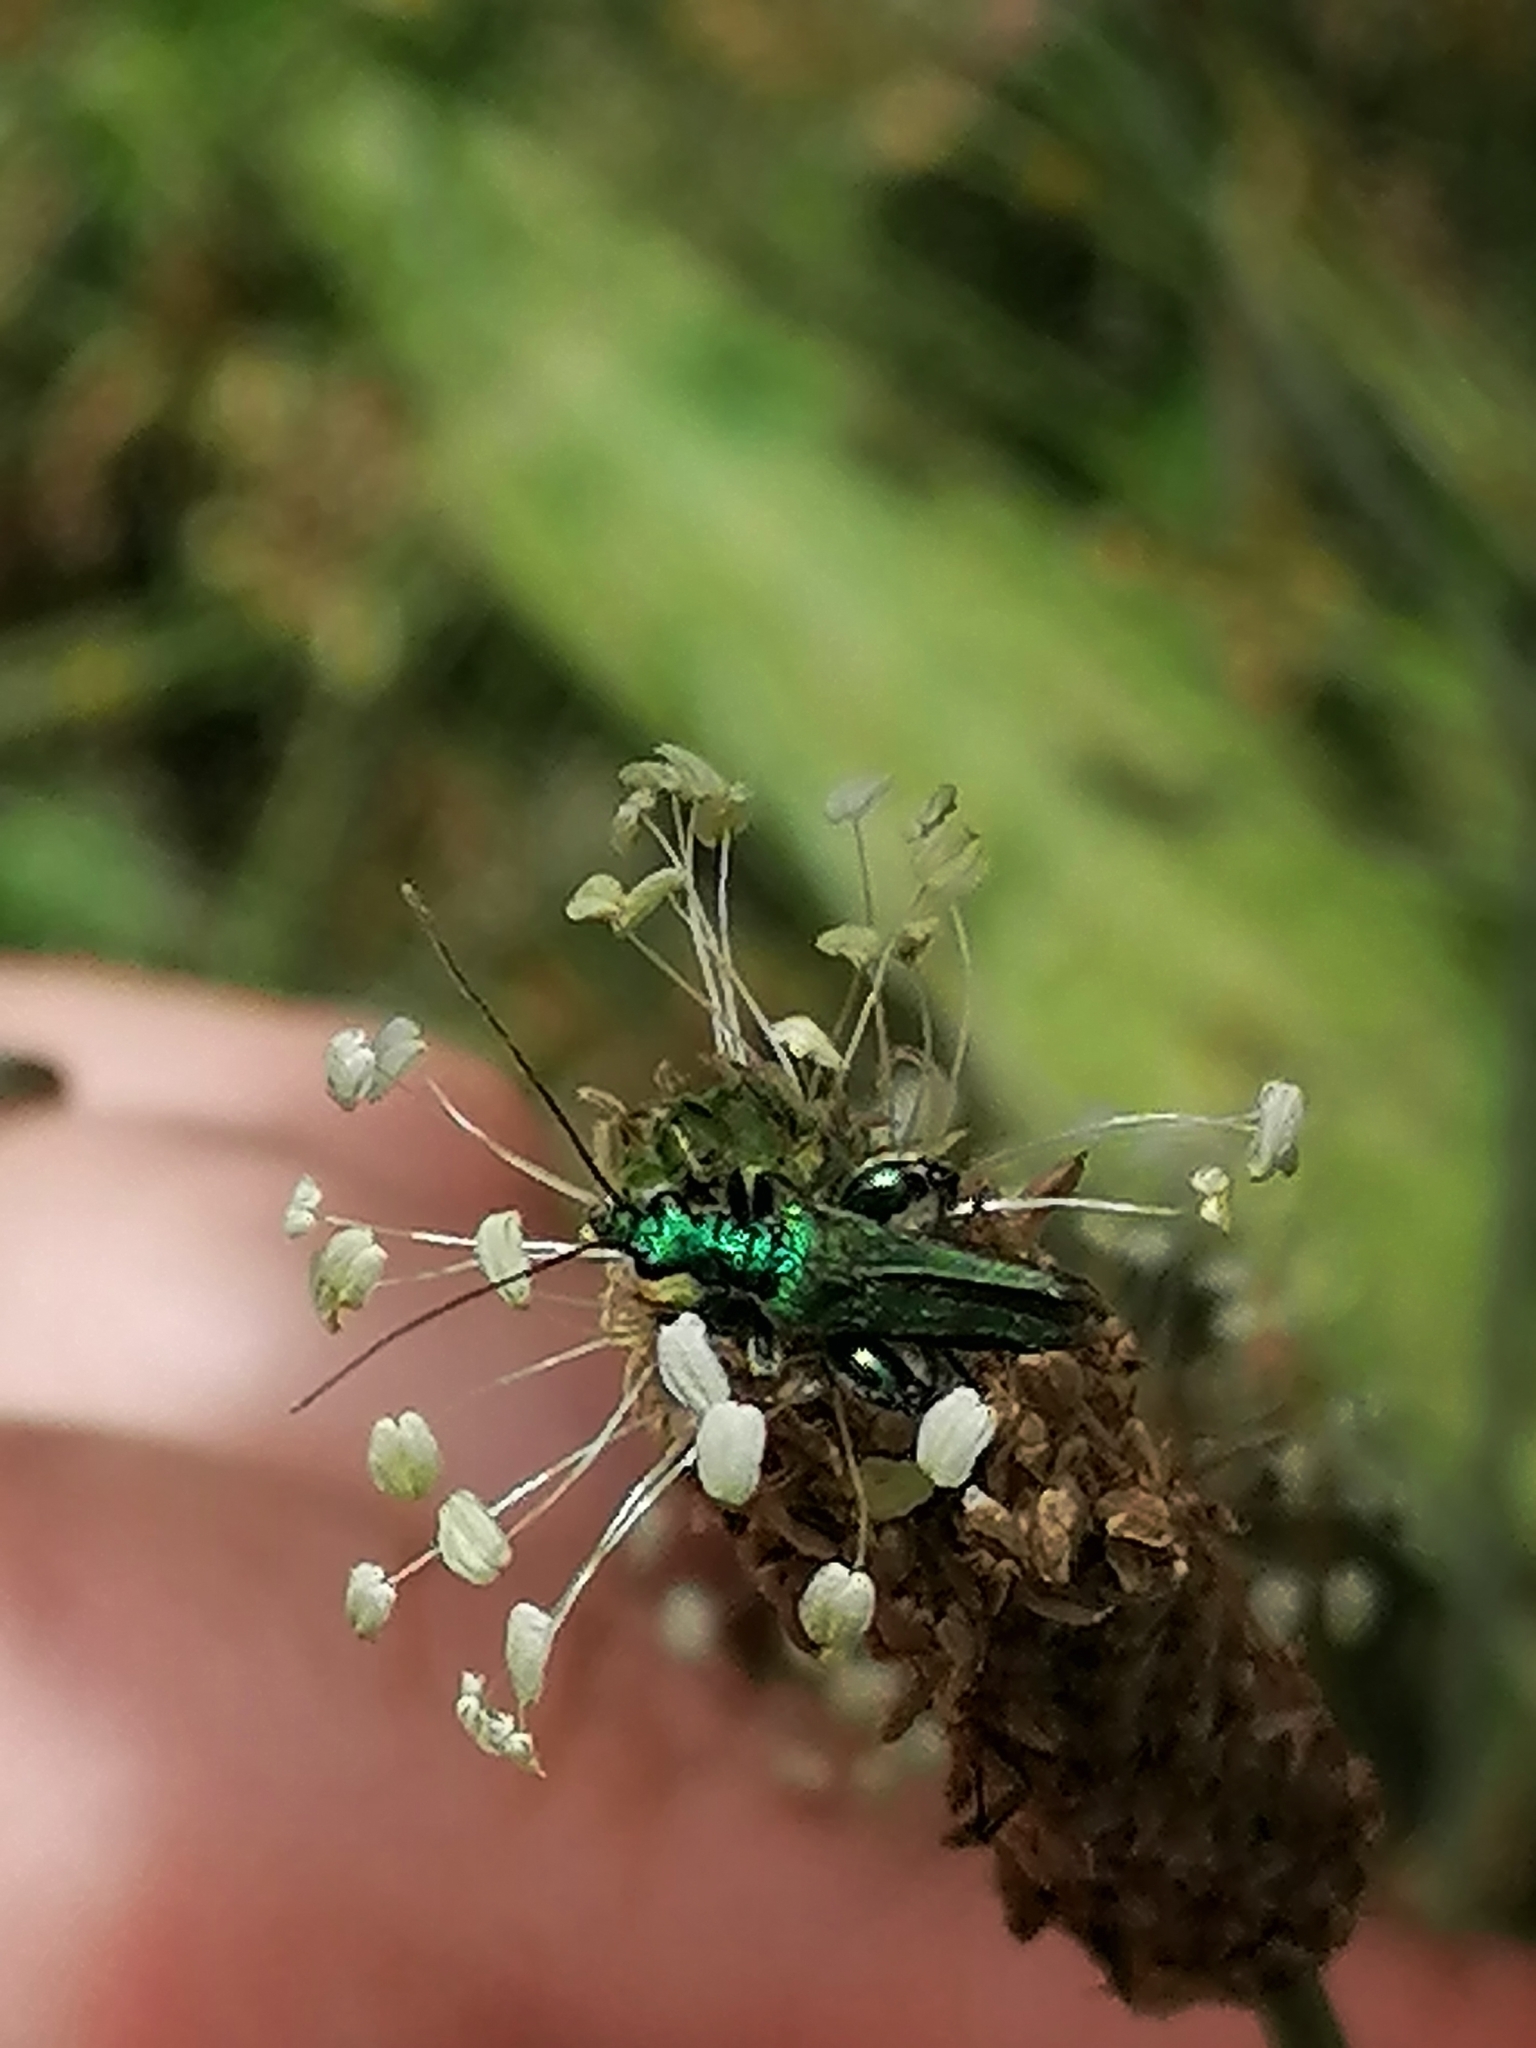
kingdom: Animalia
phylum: Arthropoda
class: Insecta
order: Coleoptera
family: Oedemeridae
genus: Oedemera
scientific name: Oedemera nobilis
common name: Swollen-thighed beetle
